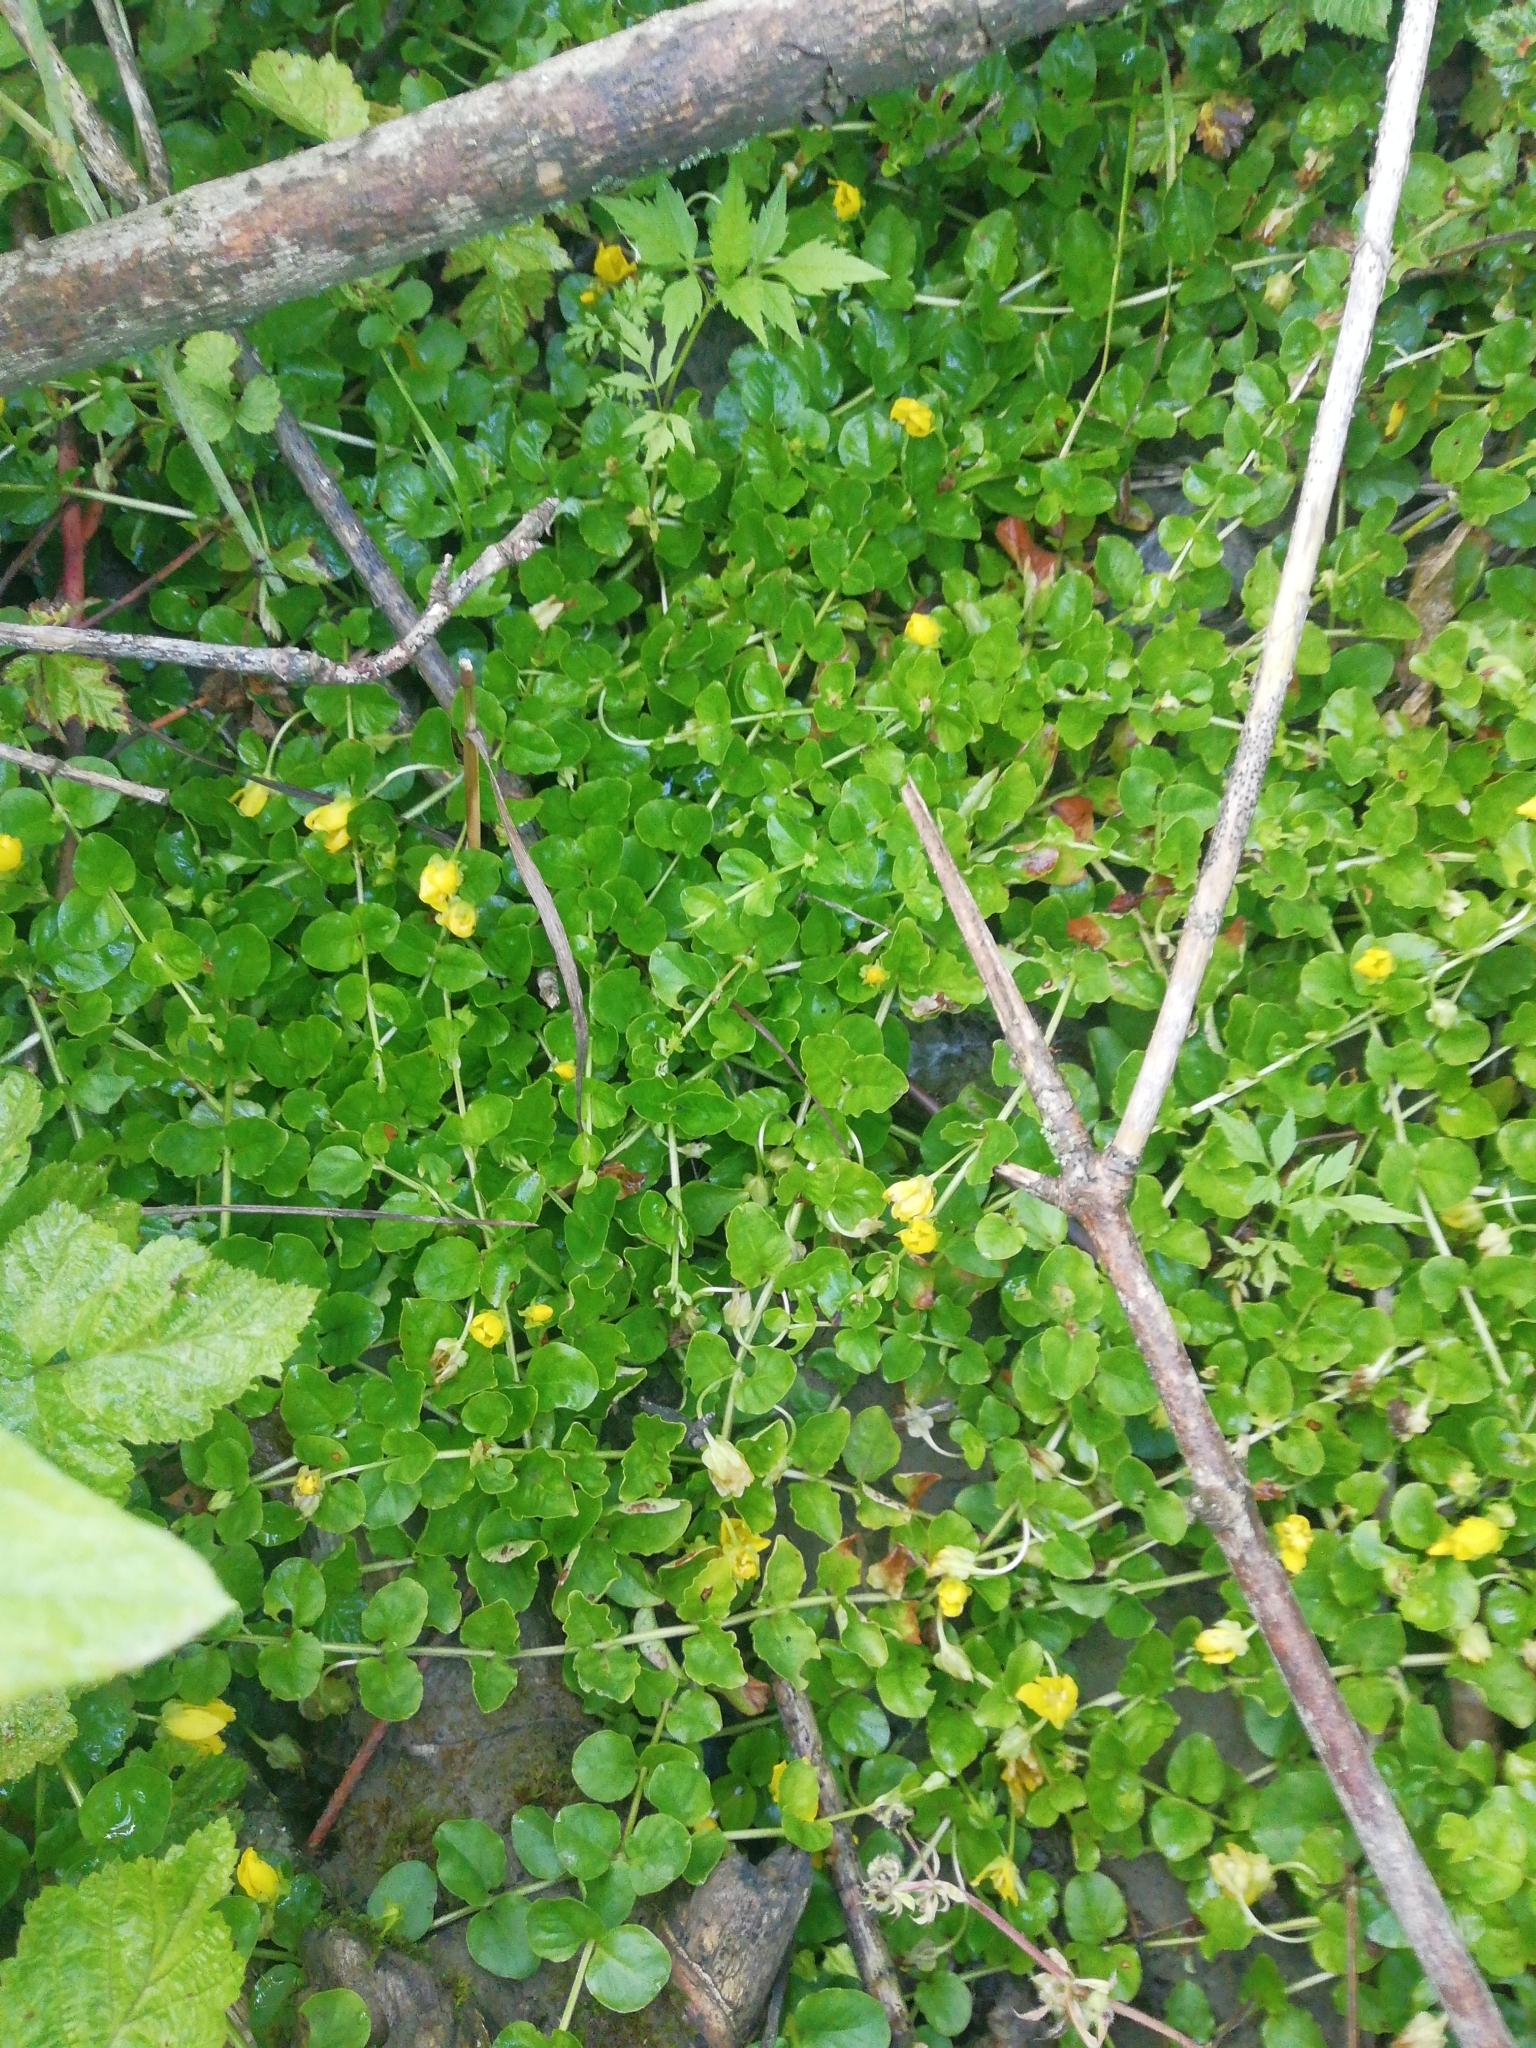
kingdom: Plantae
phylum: Tracheophyta
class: Magnoliopsida
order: Ericales
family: Primulaceae
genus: Lysimachia
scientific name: Lysimachia nummularia
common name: Moneywort
